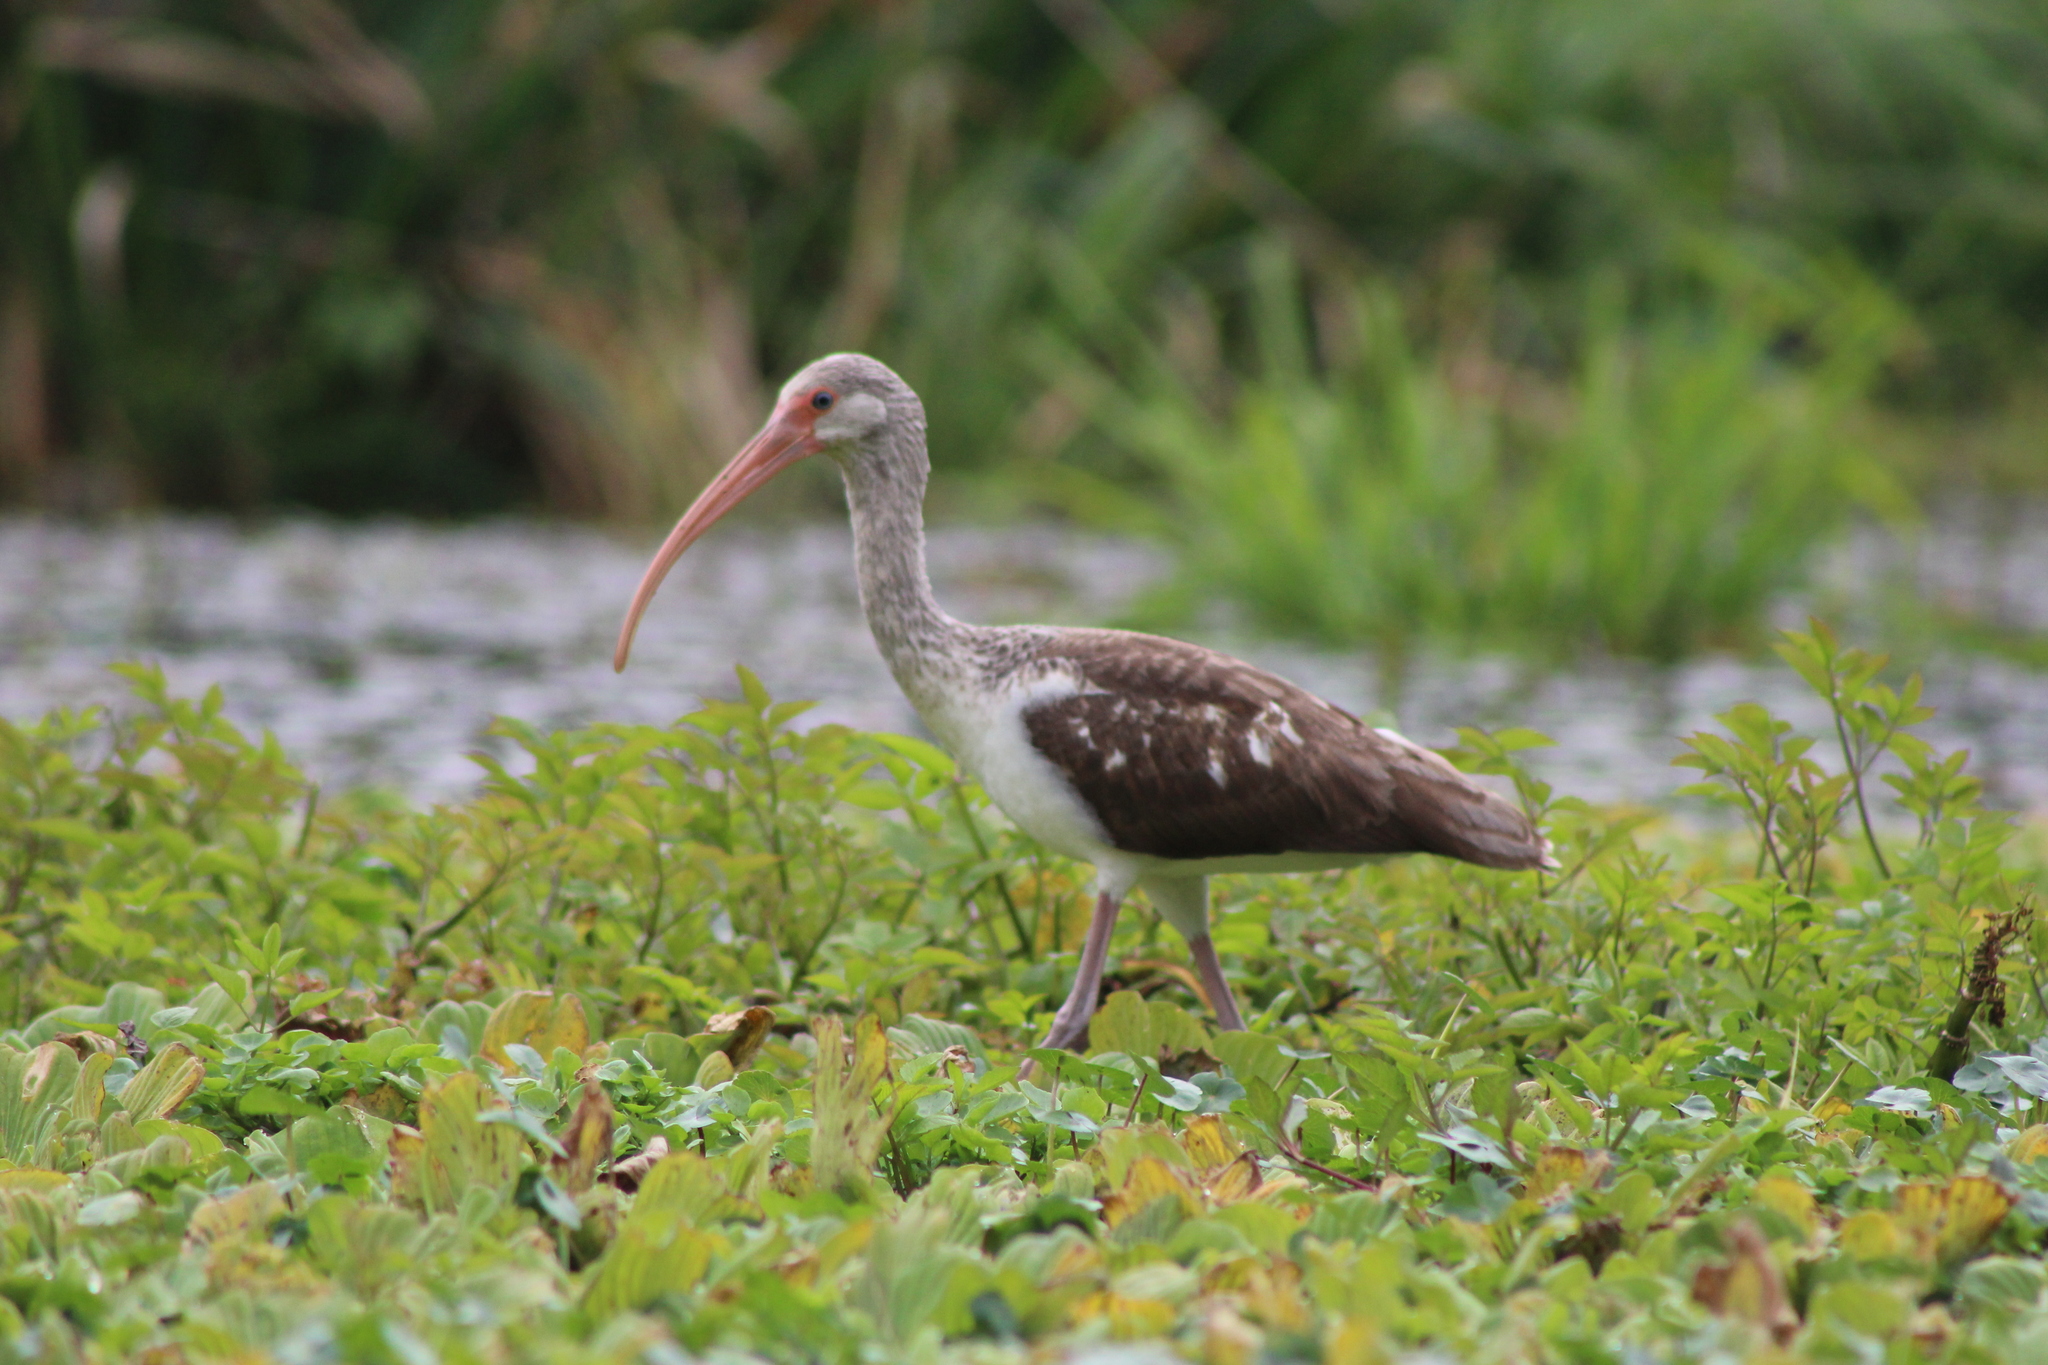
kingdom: Animalia
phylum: Chordata
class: Aves
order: Pelecaniformes
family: Threskiornithidae
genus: Eudocimus
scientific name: Eudocimus albus
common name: White ibis
